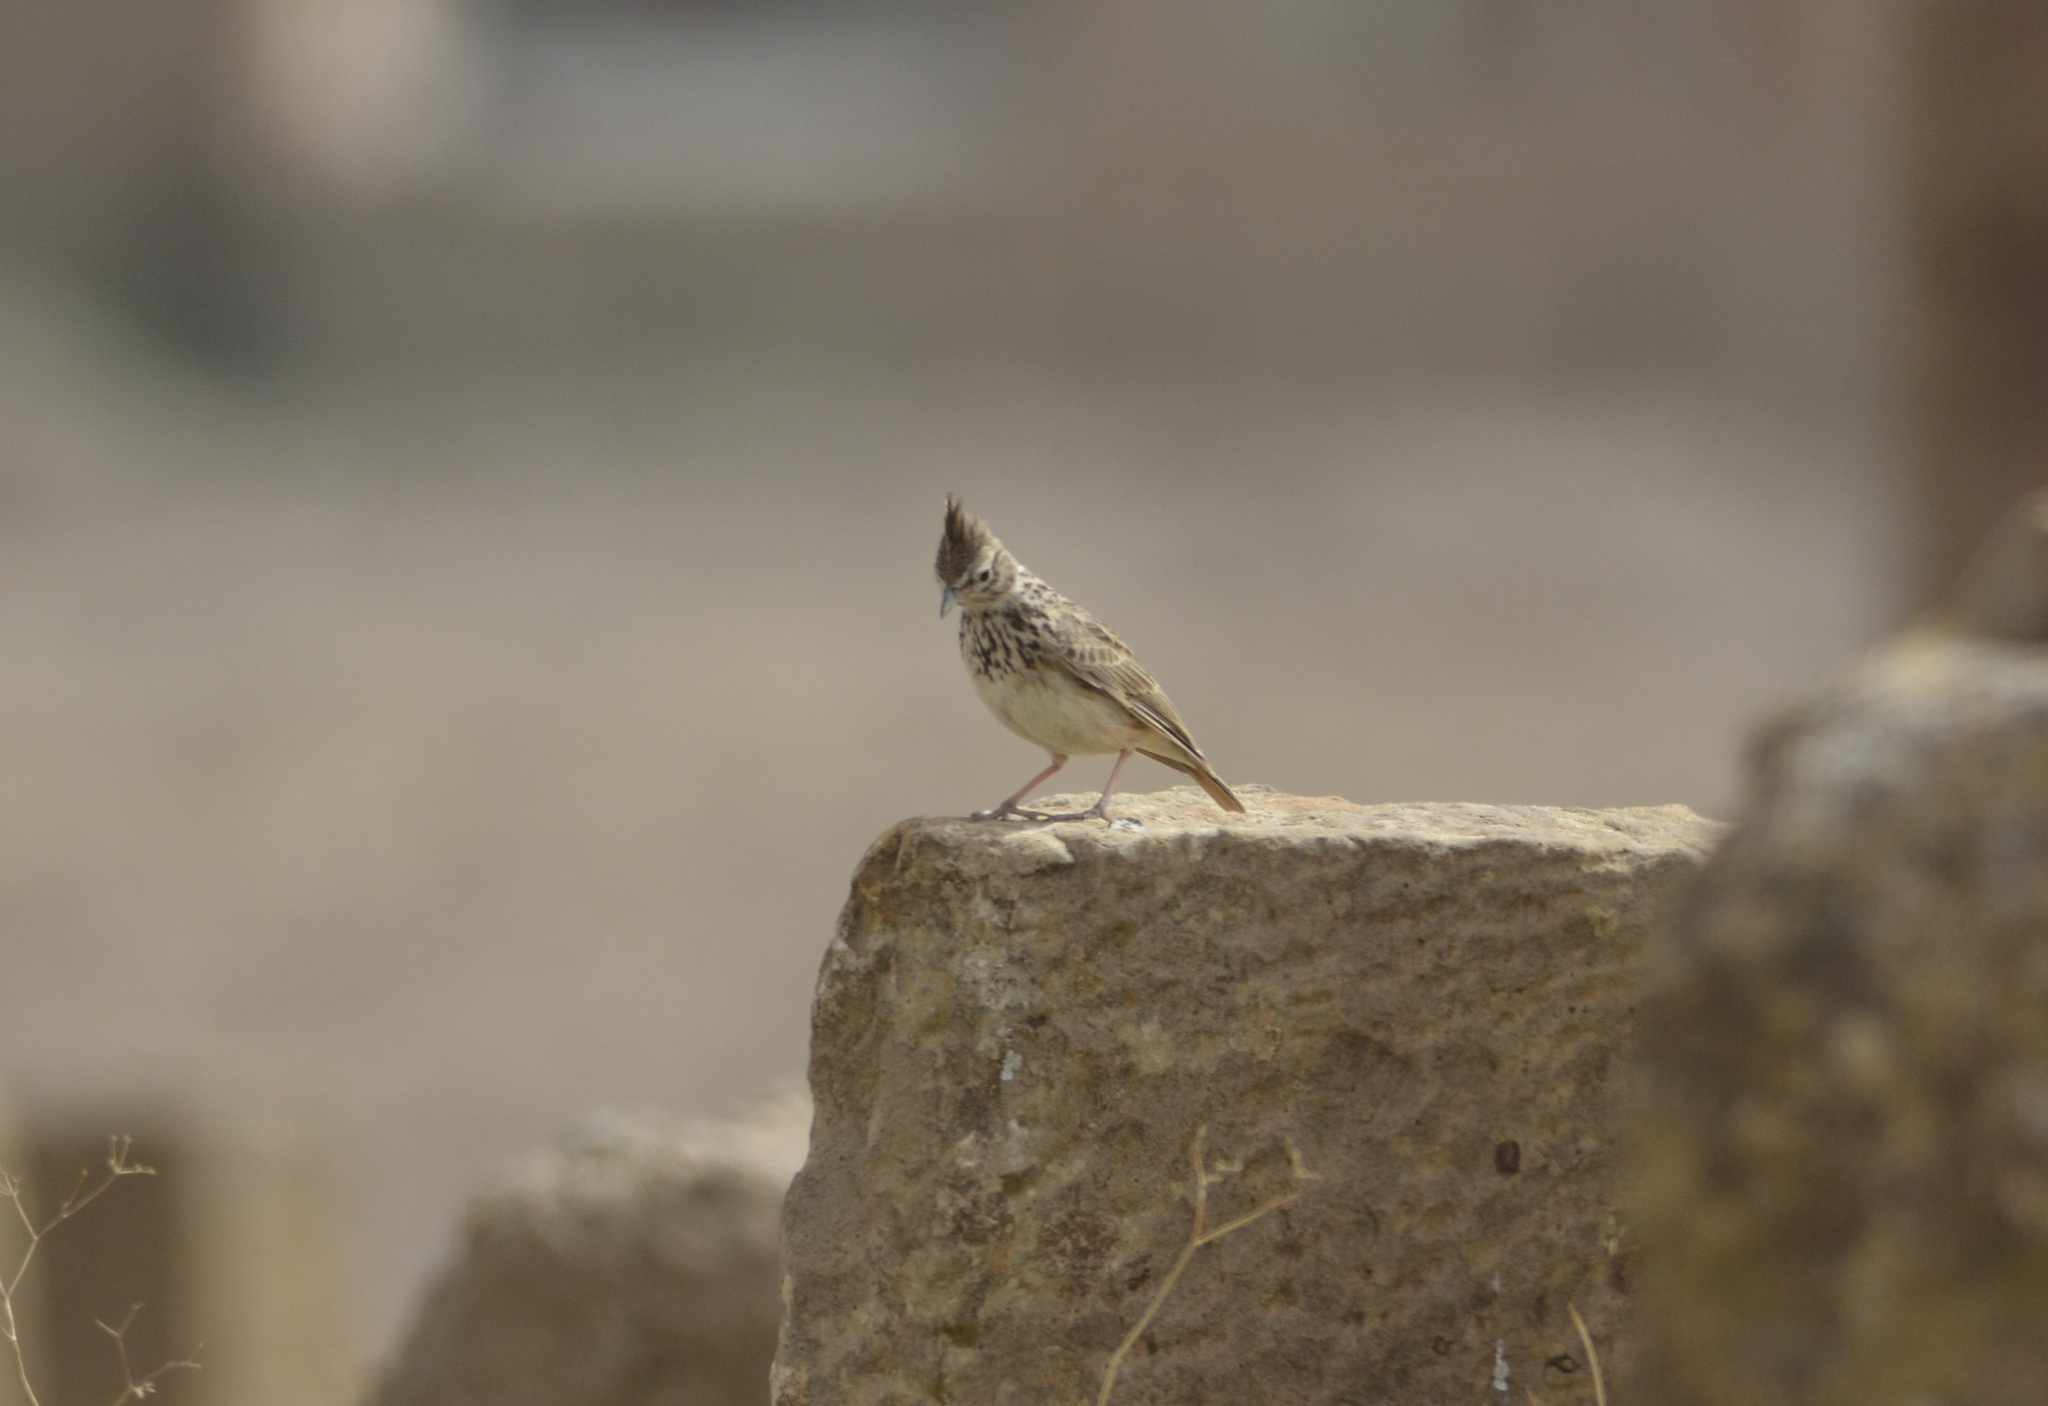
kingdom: Animalia
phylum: Chordata
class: Aves
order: Passeriformes
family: Alaudidae
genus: Galerida
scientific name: Galerida theklae
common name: Thekla lark
